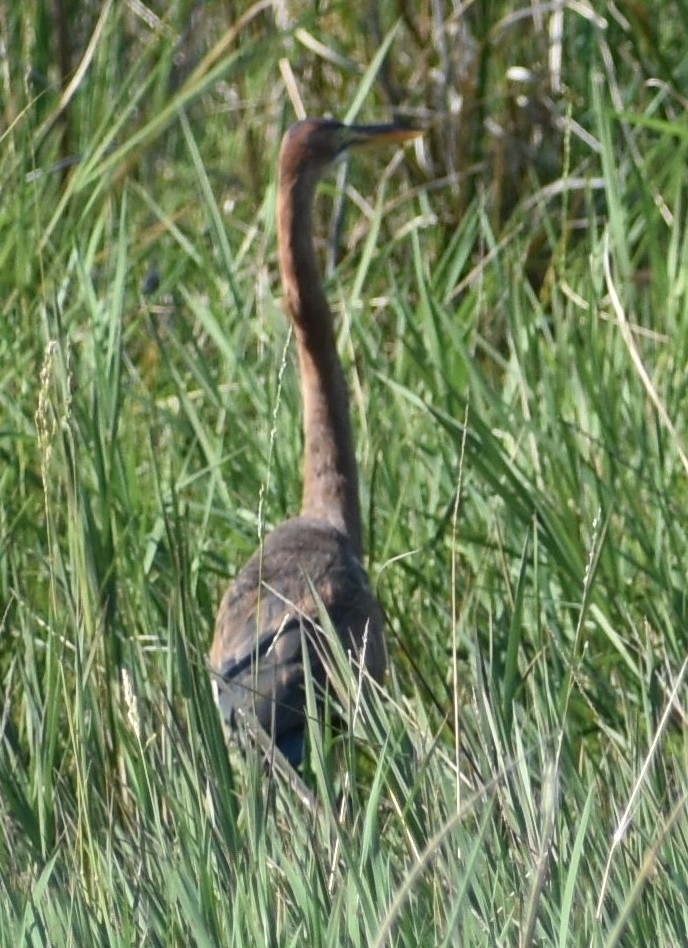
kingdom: Animalia
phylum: Chordata
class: Aves
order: Pelecaniformes
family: Ardeidae
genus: Ardea
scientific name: Ardea purpurea
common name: Purple heron
